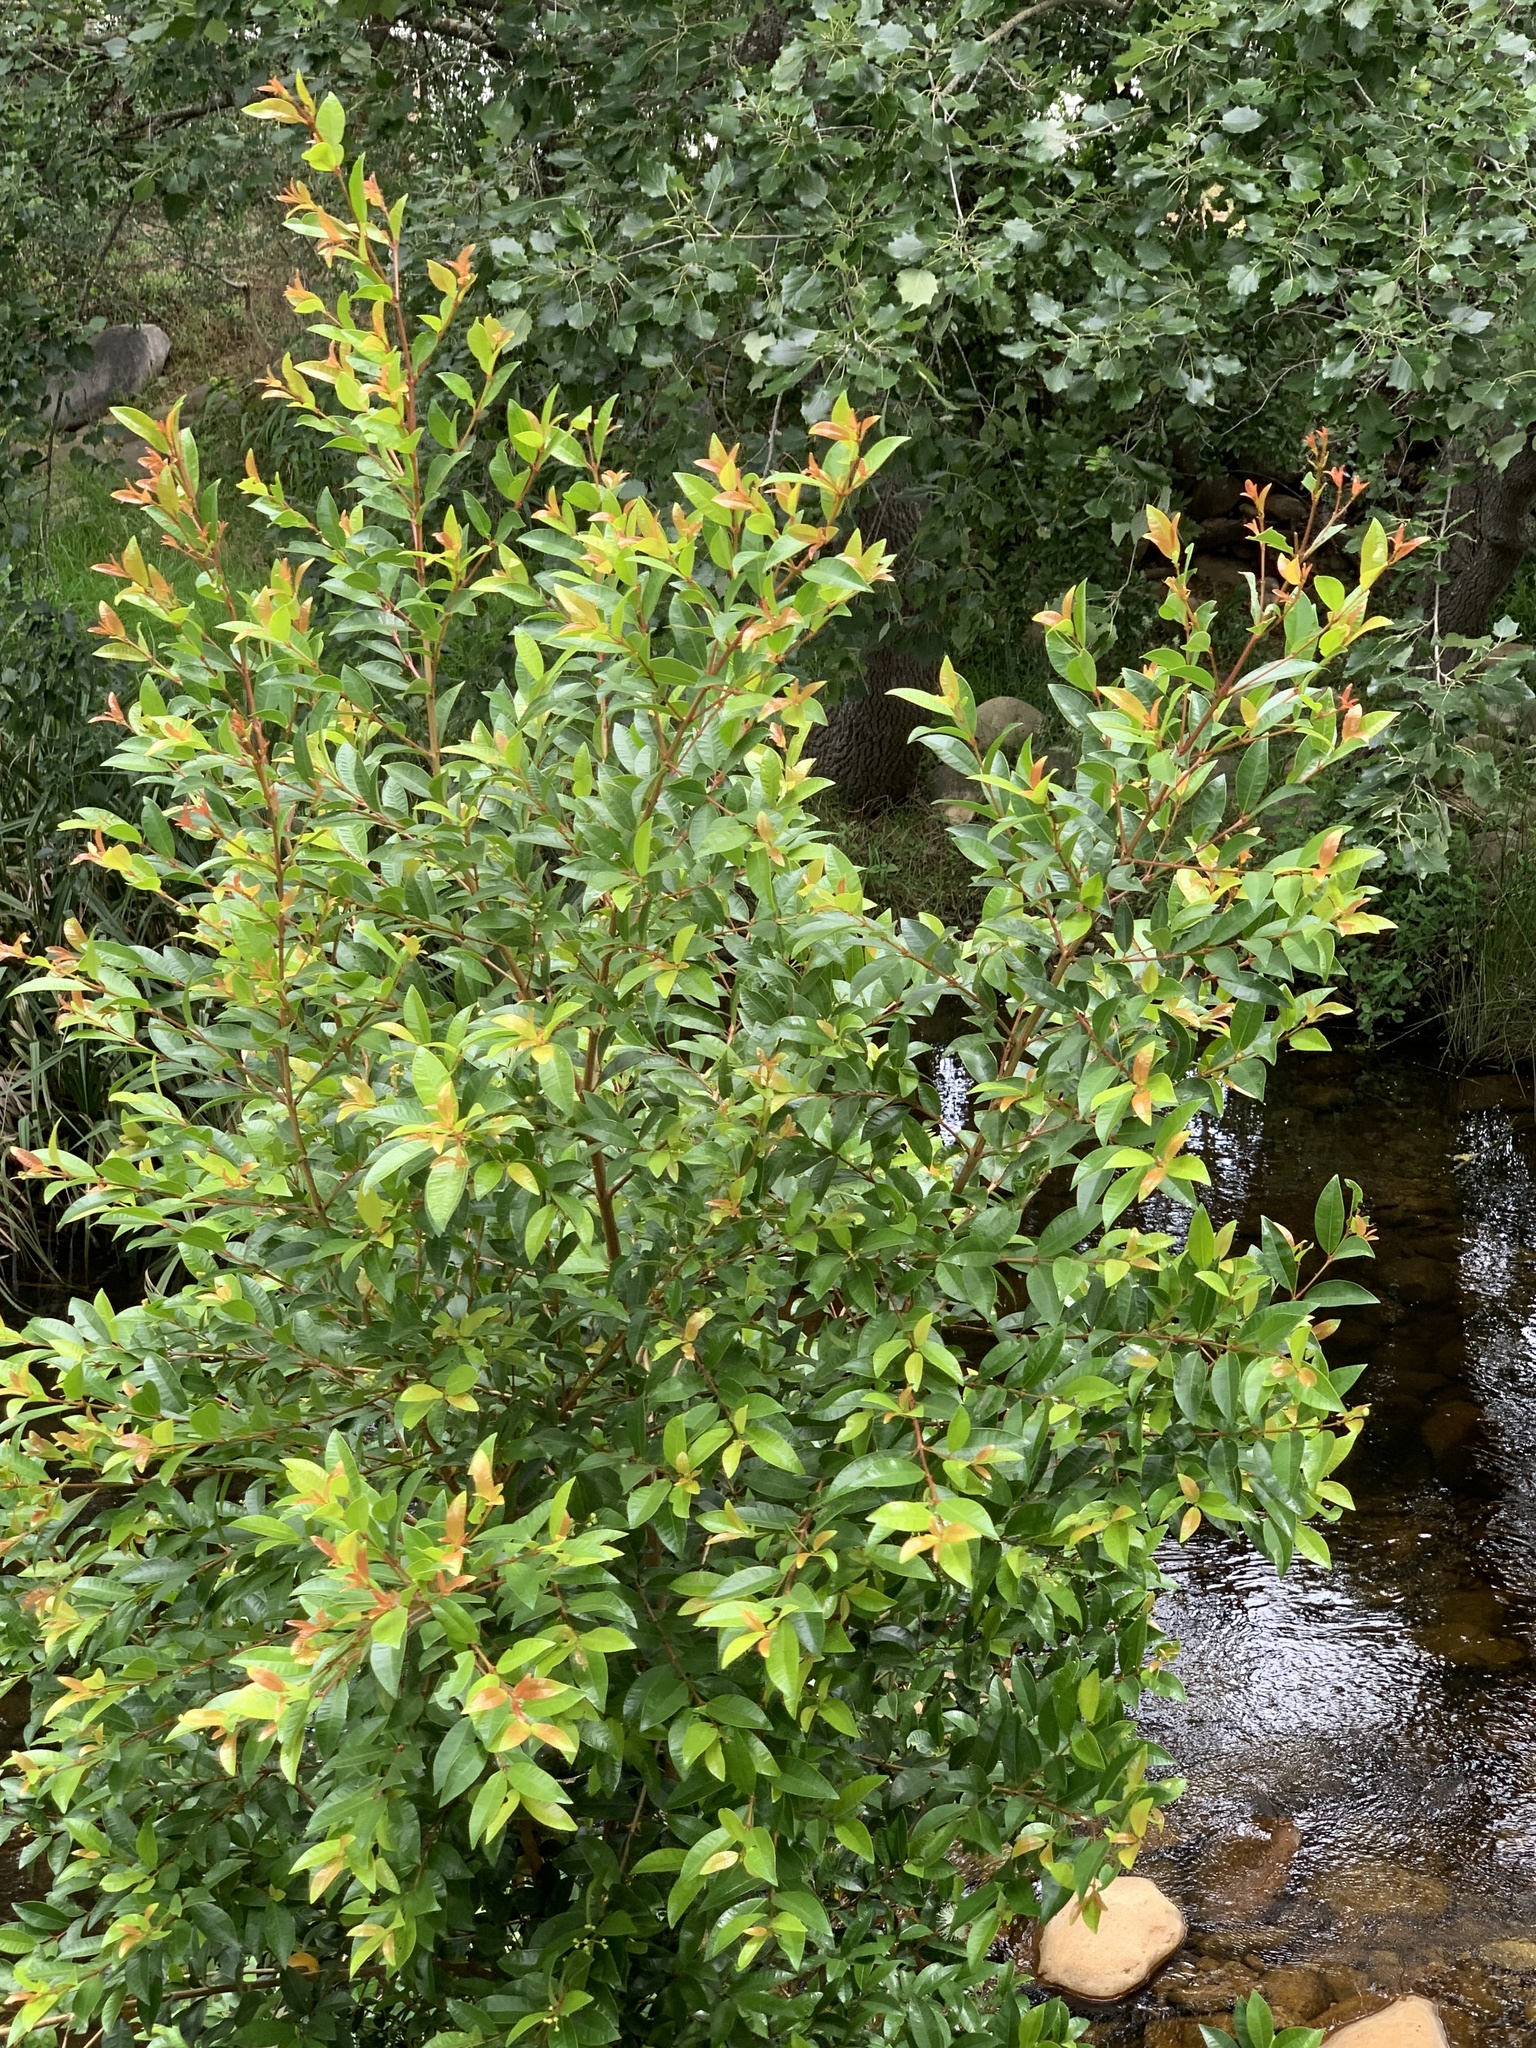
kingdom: Plantae
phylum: Tracheophyta
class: Magnoliopsida
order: Myrtales
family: Myrtaceae
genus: Syzygium
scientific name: Syzygium australe
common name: Australian brush-cherry
